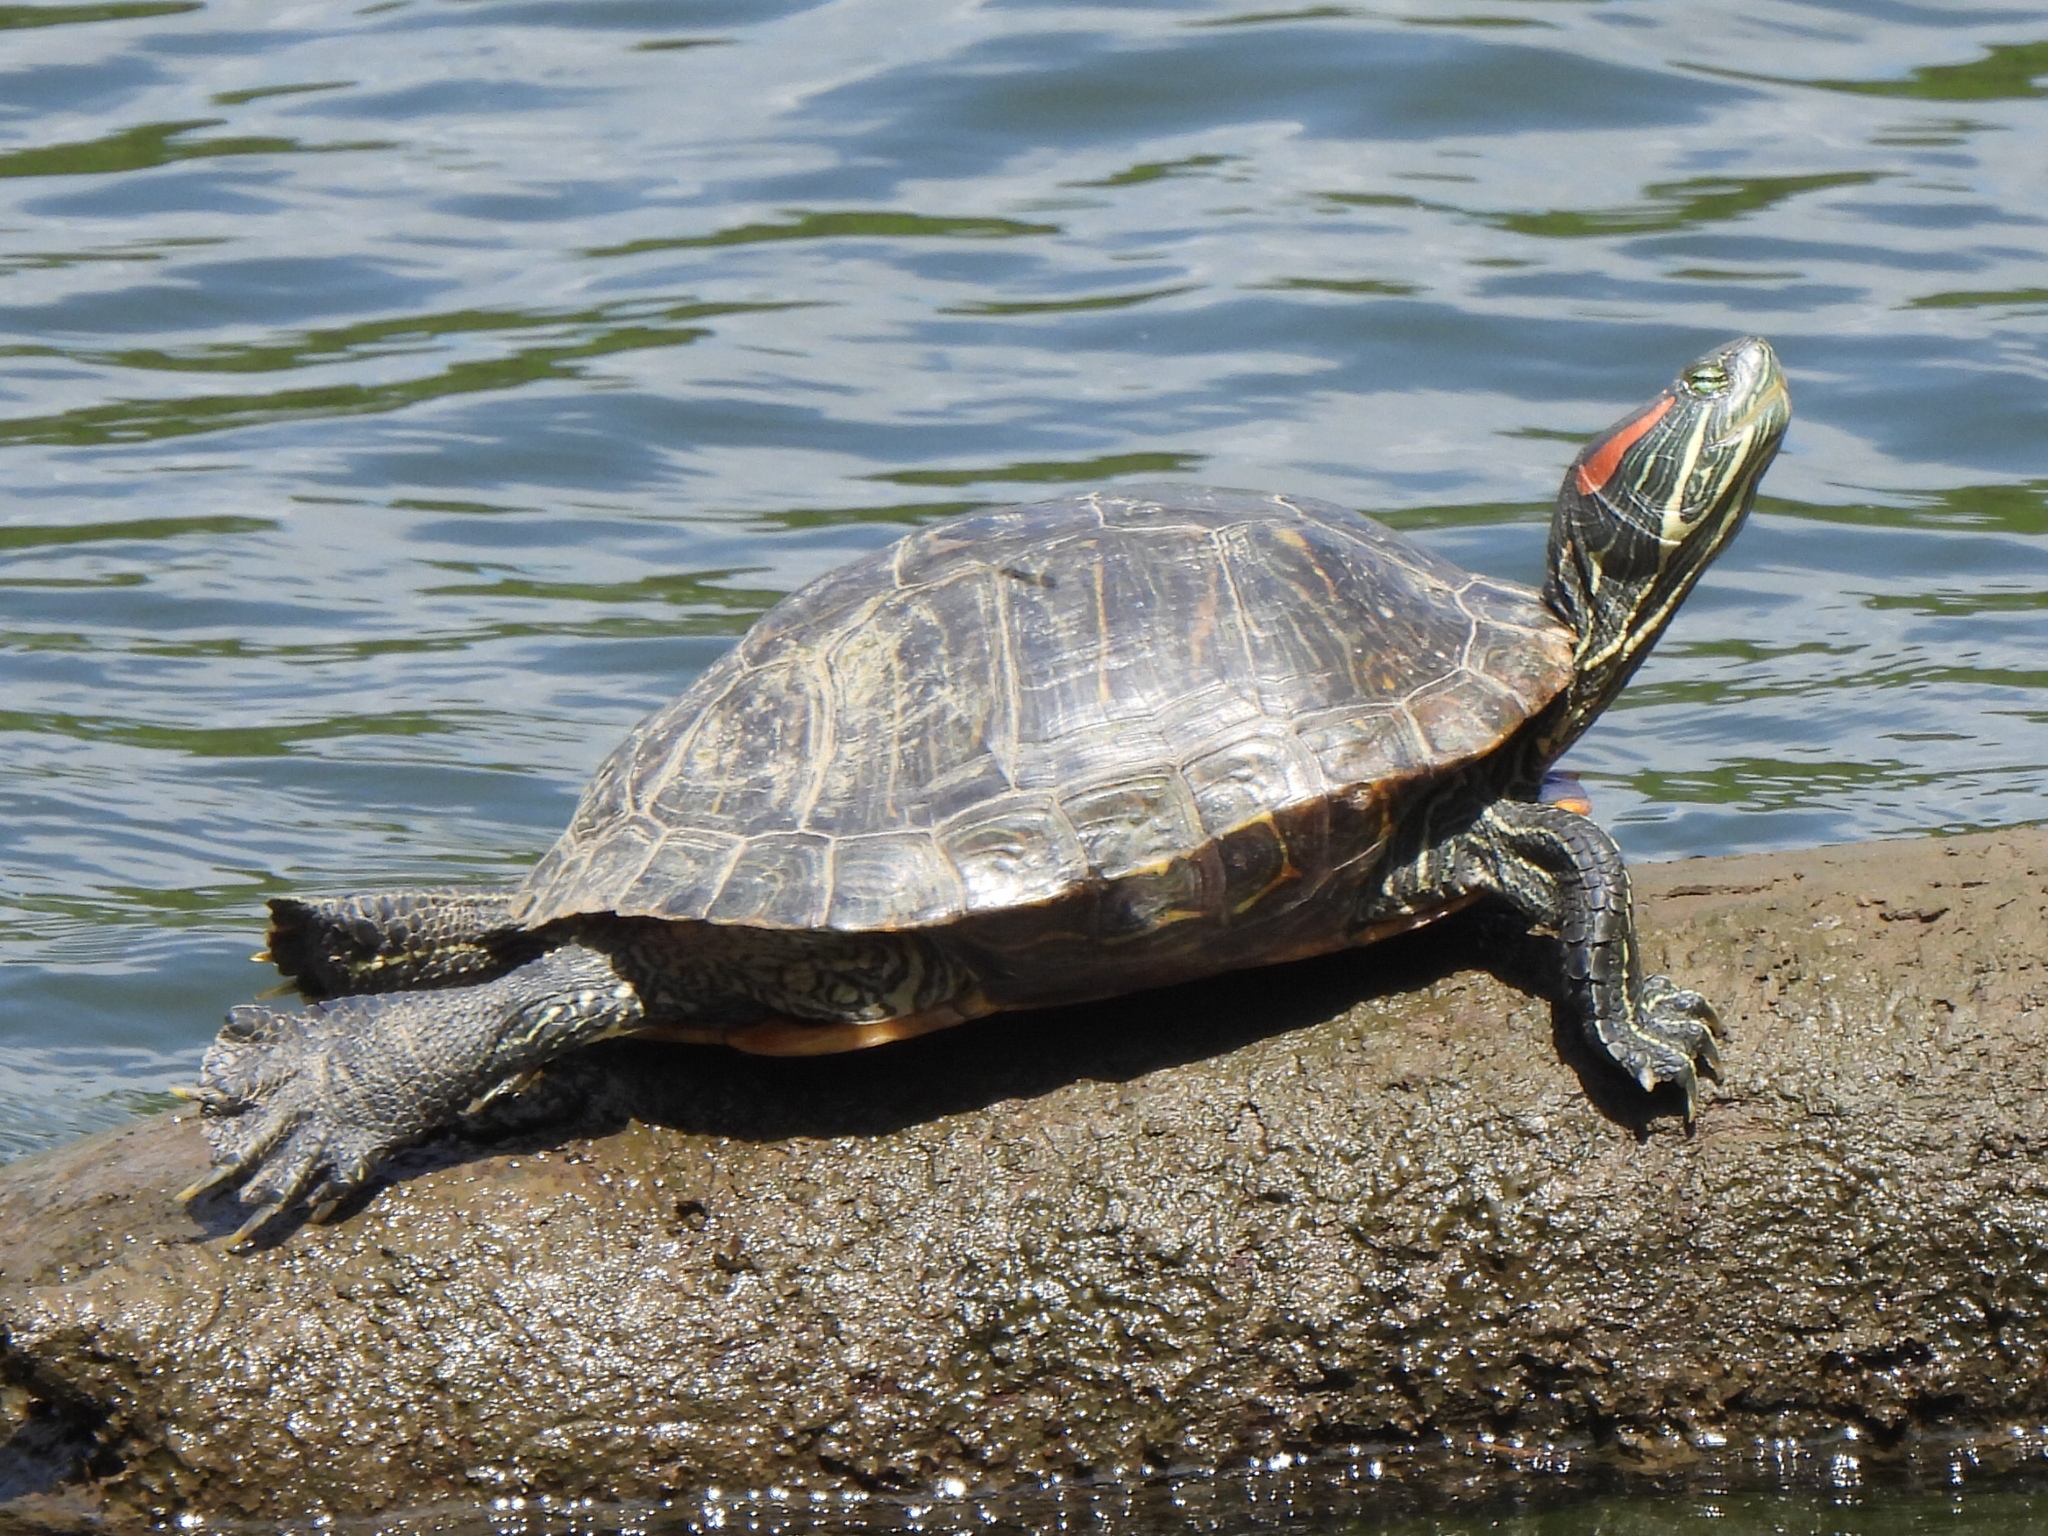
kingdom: Animalia
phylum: Chordata
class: Testudines
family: Emydidae
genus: Trachemys
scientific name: Trachemys scripta
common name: Slider
